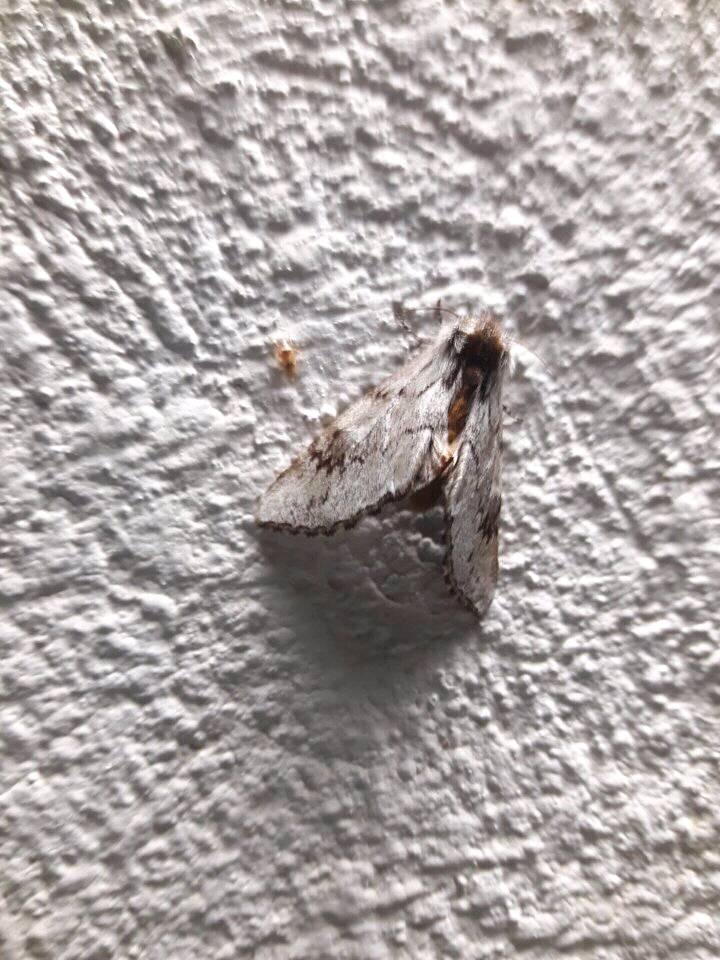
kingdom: Animalia
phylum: Arthropoda
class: Insecta
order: Lepidoptera
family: Notodontidae
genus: Cargida
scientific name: Cargida pyrrha
